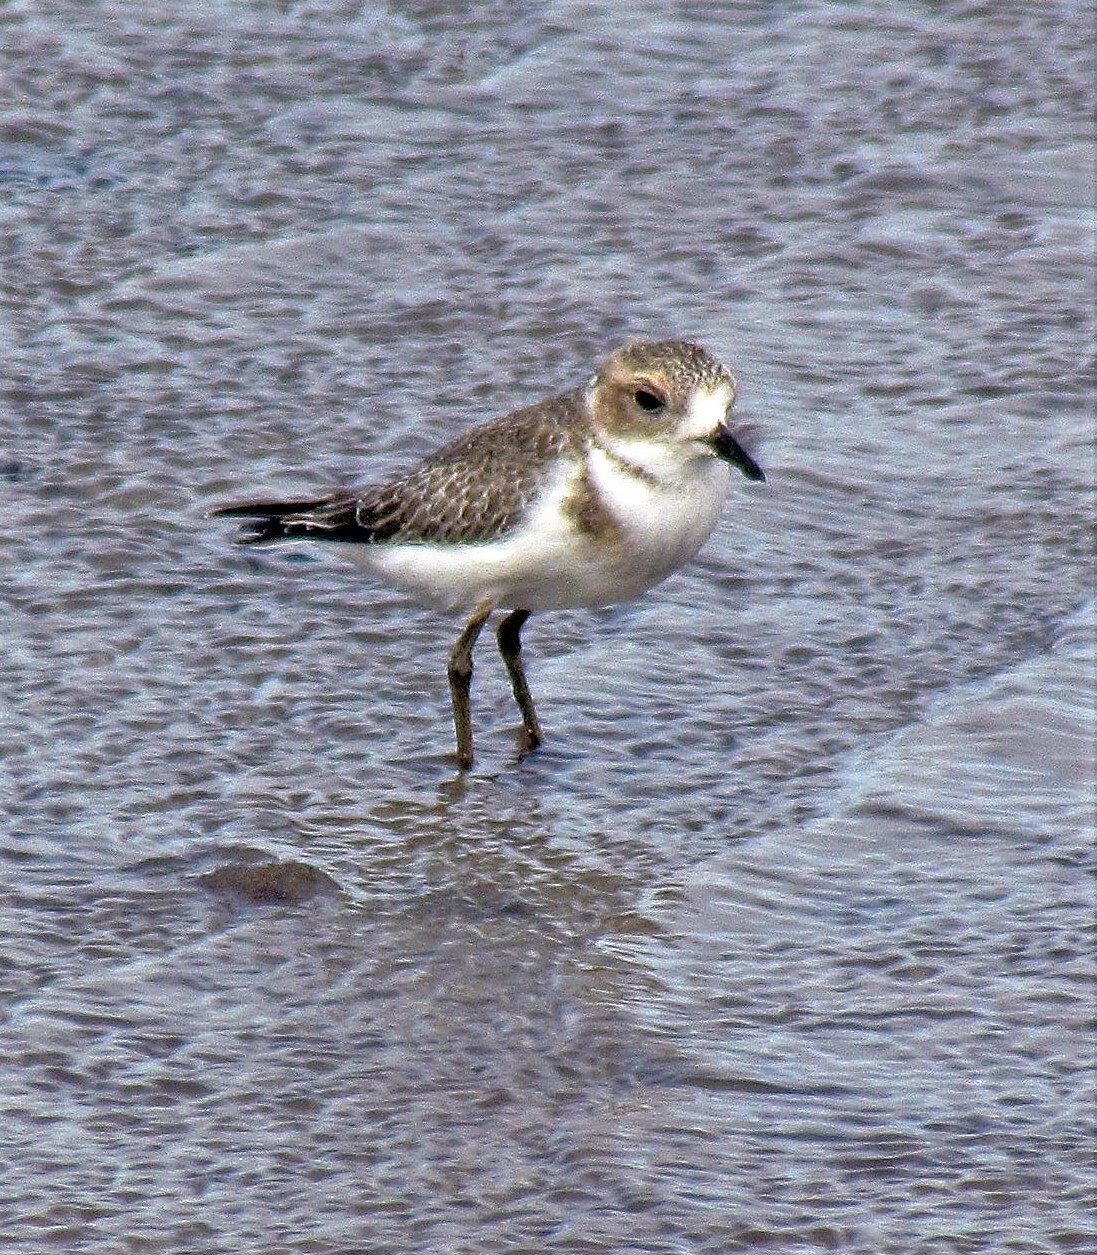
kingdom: Animalia
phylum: Chordata
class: Aves
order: Charadriiformes
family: Charadriidae
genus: Anarhynchus
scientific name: Anarhynchus
